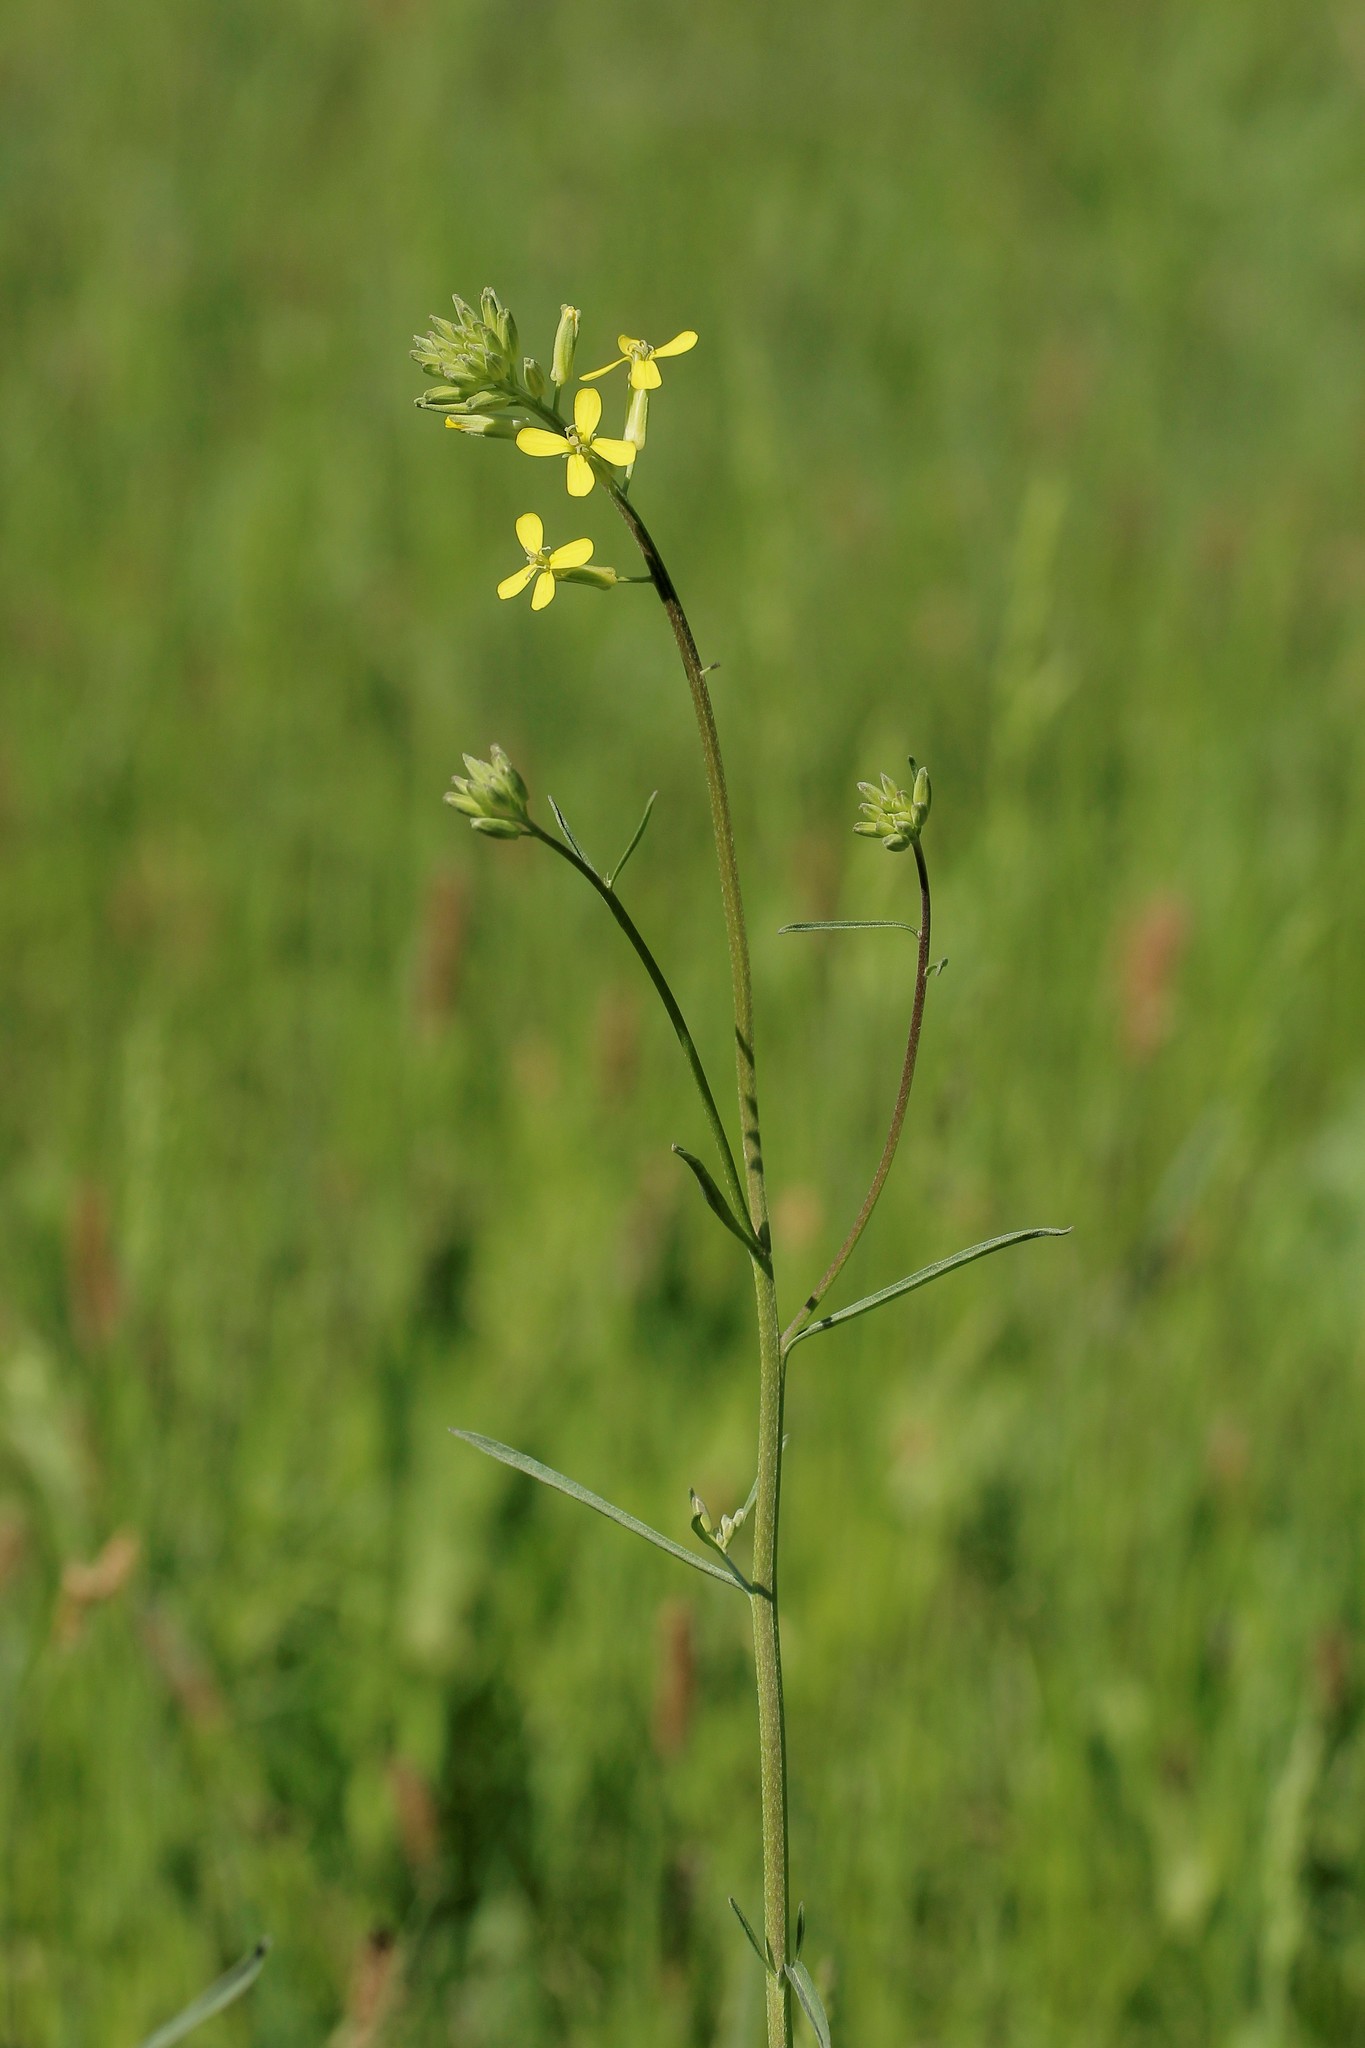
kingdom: Plantae
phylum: Tracheophyta
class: Magnoliopsida
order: Brassicales
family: Brassicaceae
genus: Erysimum
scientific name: Erysimum diffusum
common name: Diffuse wallflower
